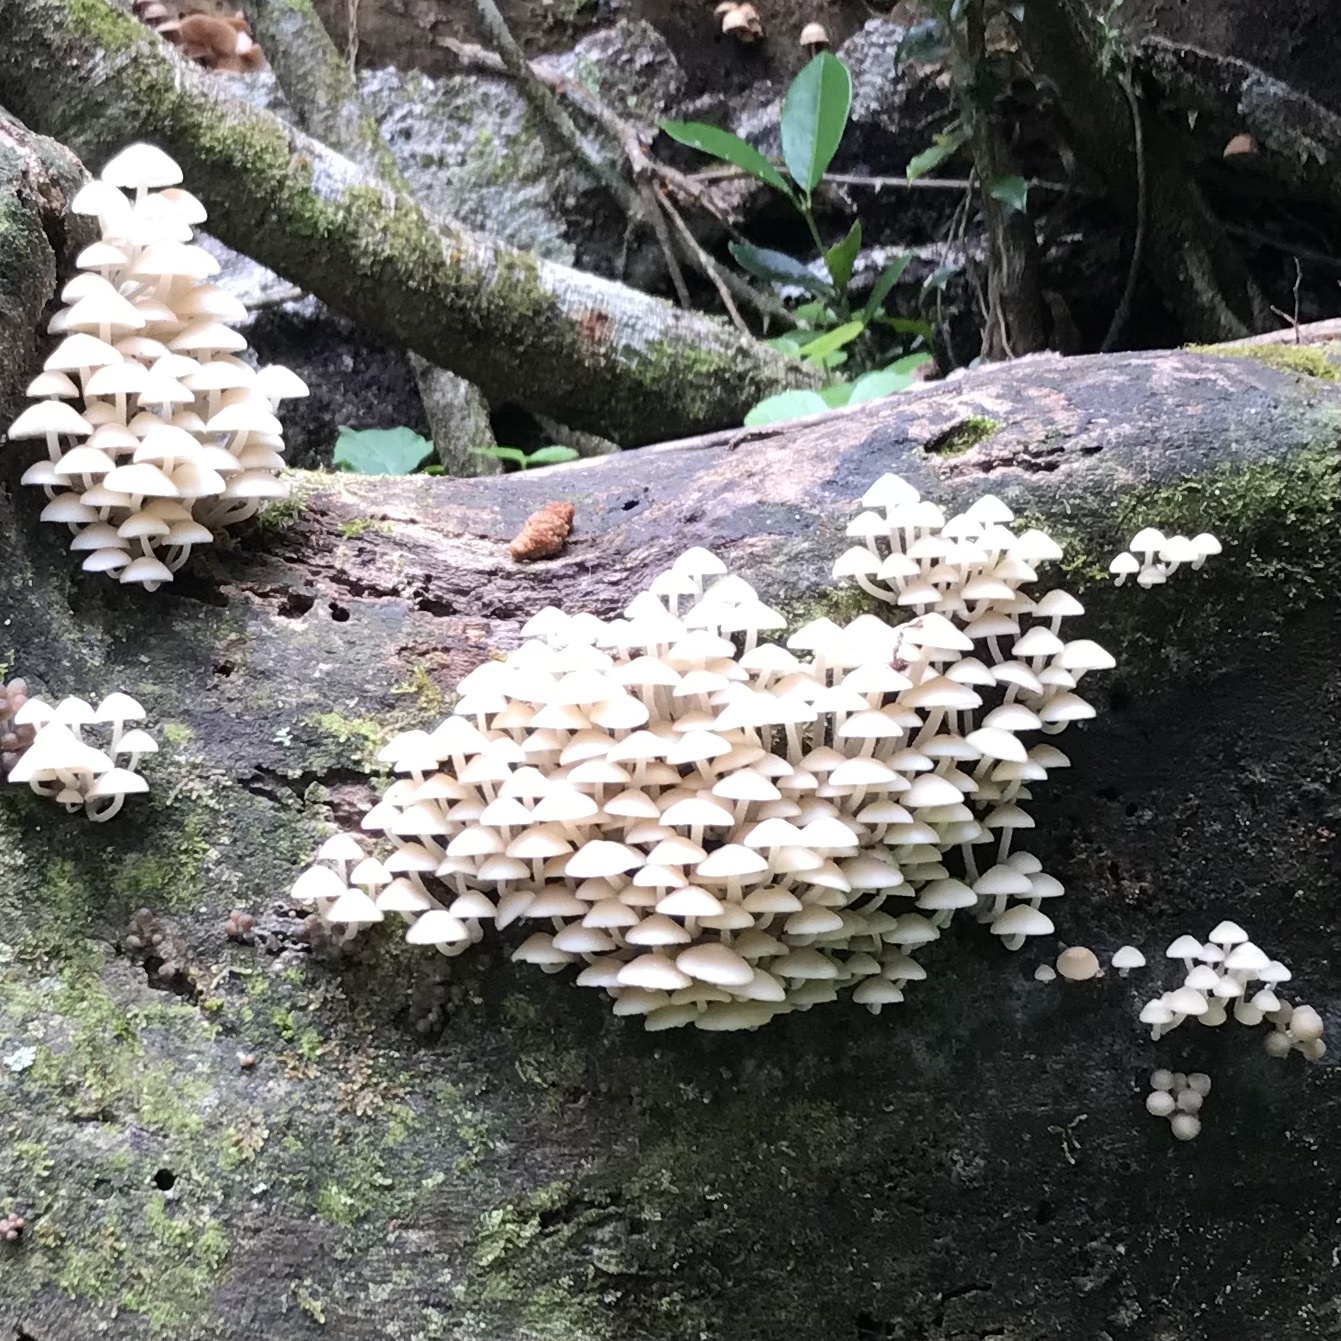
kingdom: Fungi
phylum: Basidiomycota
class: Agaricomycetes
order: Agaricales
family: Mycenaceae
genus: Filoboletus
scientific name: Filoboletus manipularis
